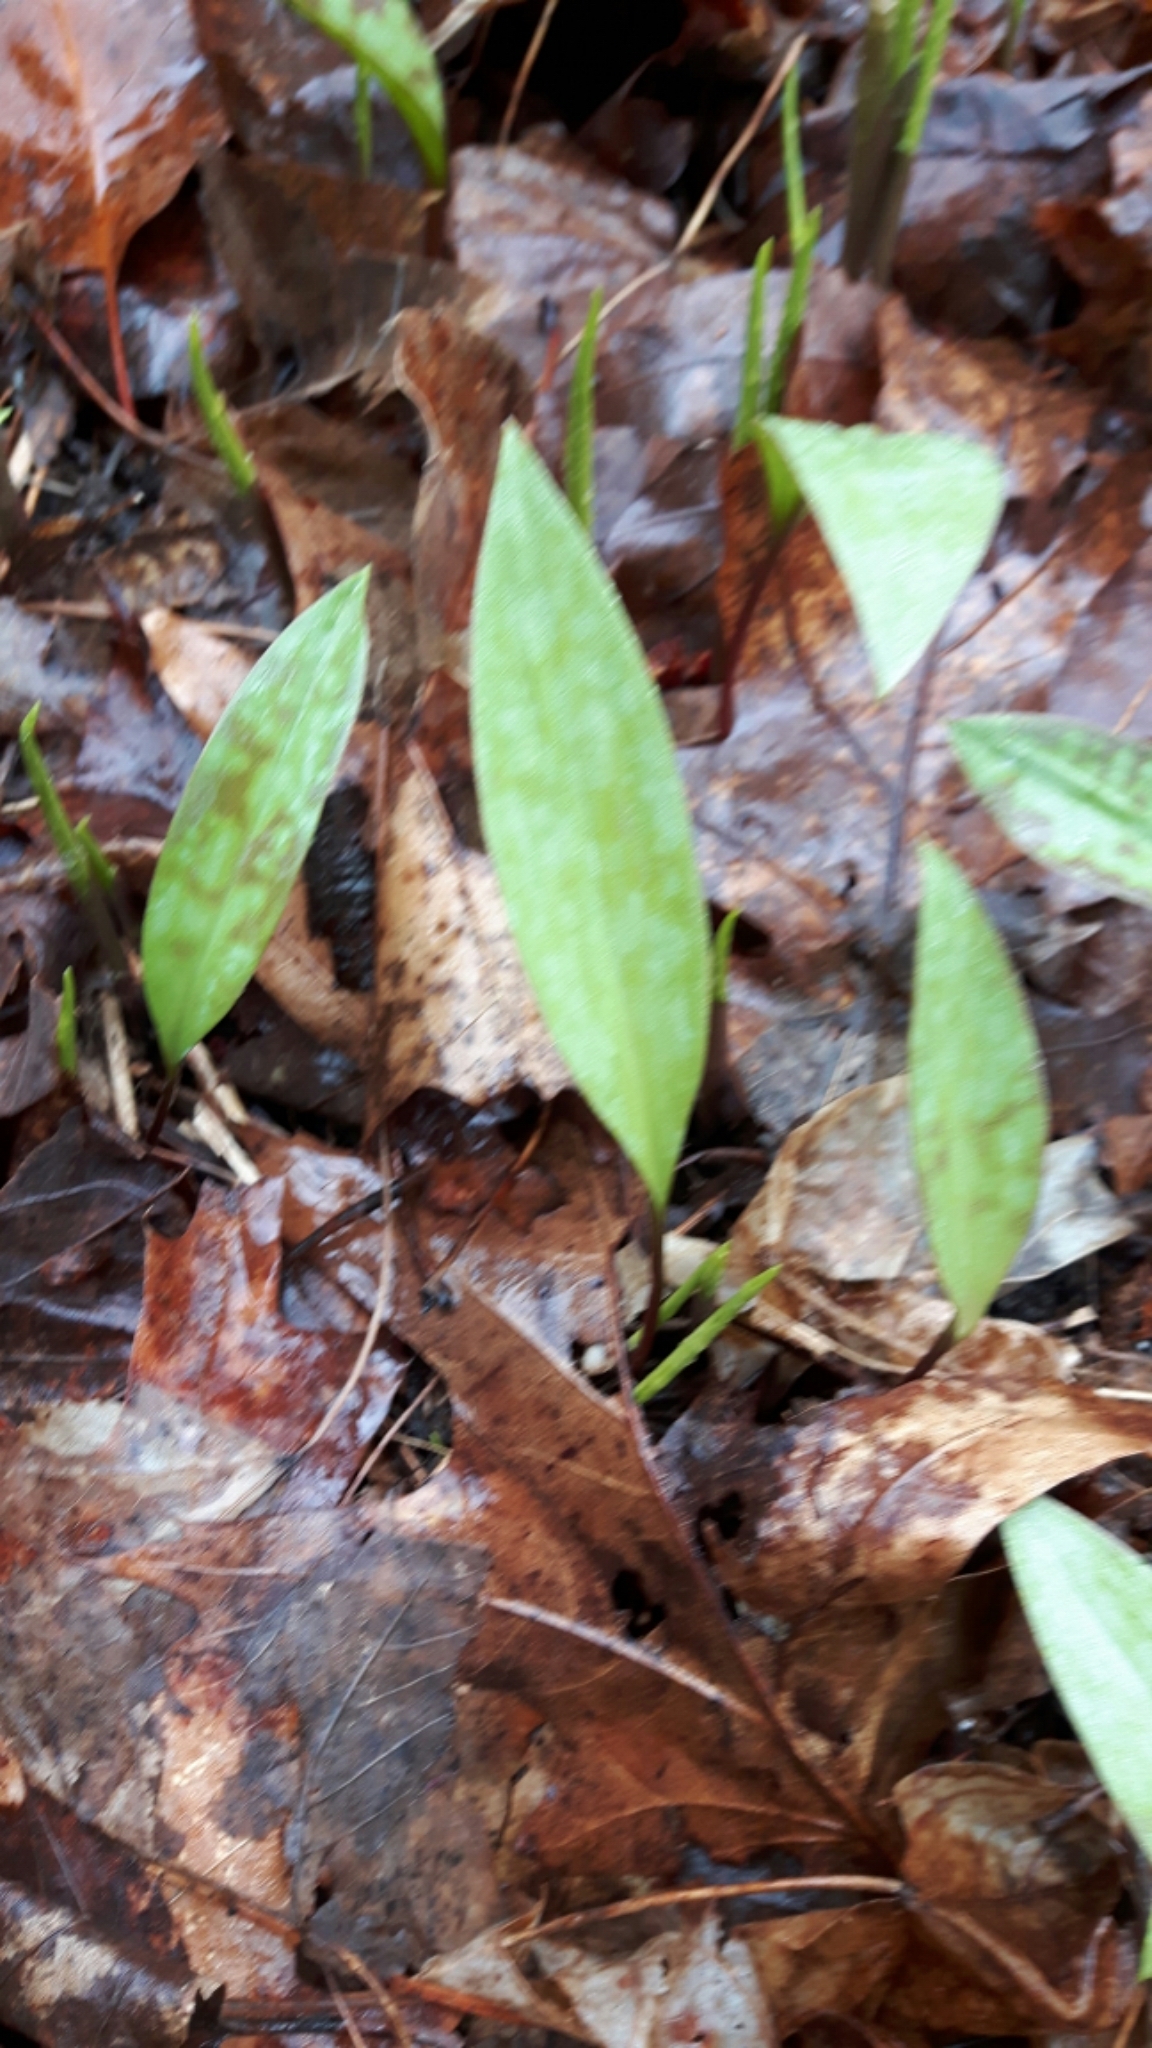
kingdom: Plantae
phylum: Tracheophyta
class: Liliopsida
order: Liliales
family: Liliaceae
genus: Erythronium
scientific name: Erythronium americanum
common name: Yellow adder's-tongue
